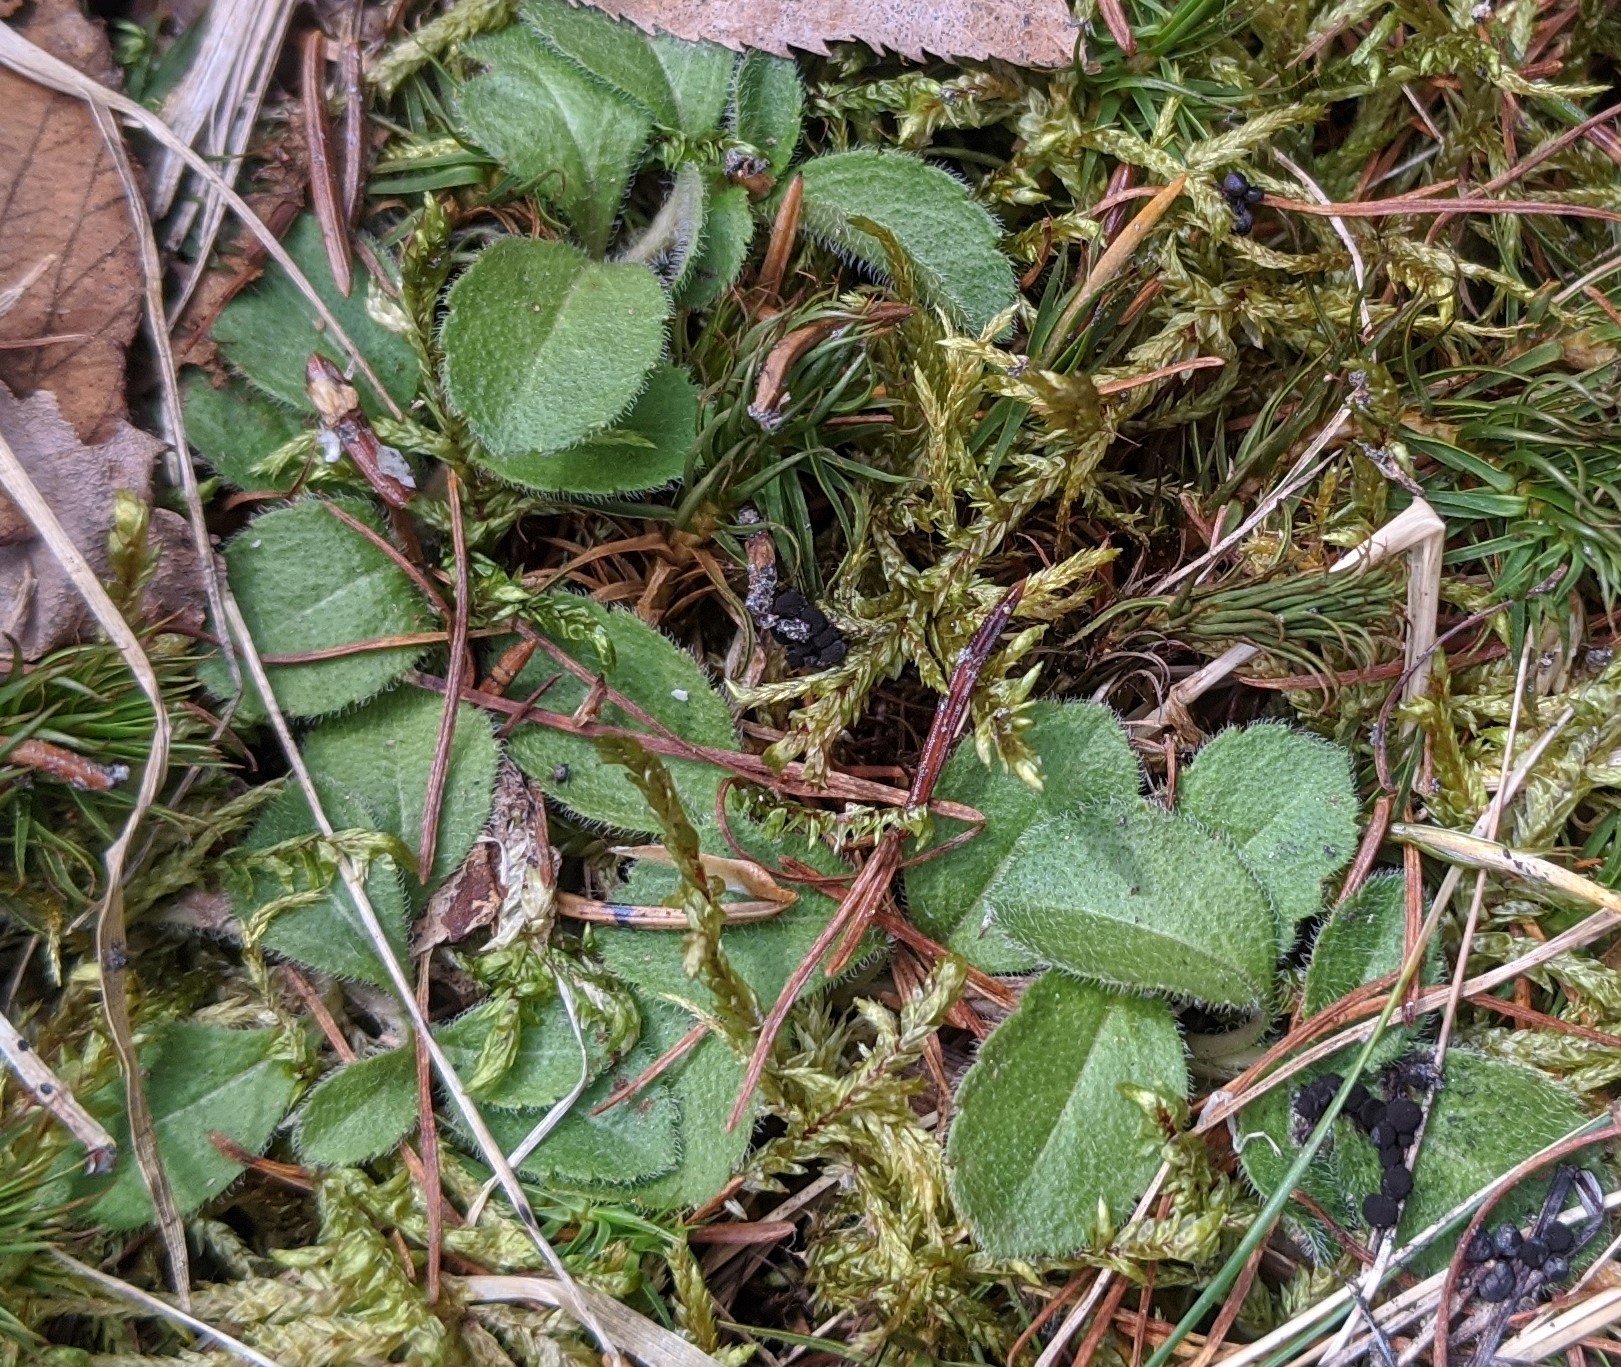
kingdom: Plantae
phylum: Tracheophyta
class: Magnoliopsida
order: Lamiales
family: Plantaginaceae
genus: Veronica
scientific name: Veronica officinalis
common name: Common speedwell
